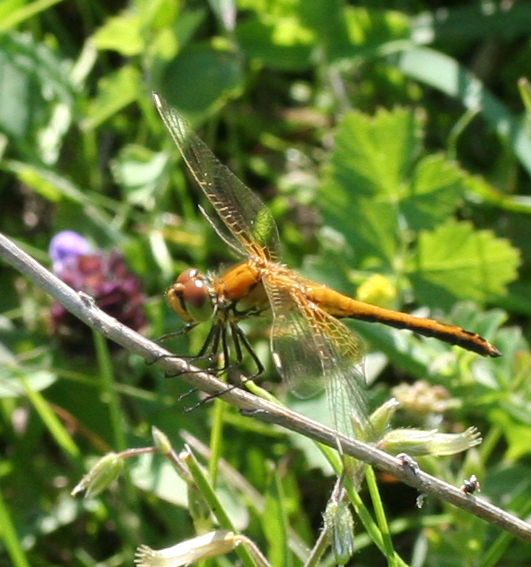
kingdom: Animalia
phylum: Arthropoda
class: Insecta
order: Odonata
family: Libellulidae
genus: Sympetrum
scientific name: Sympetrum flaveolum
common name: Yellow-winged darter
